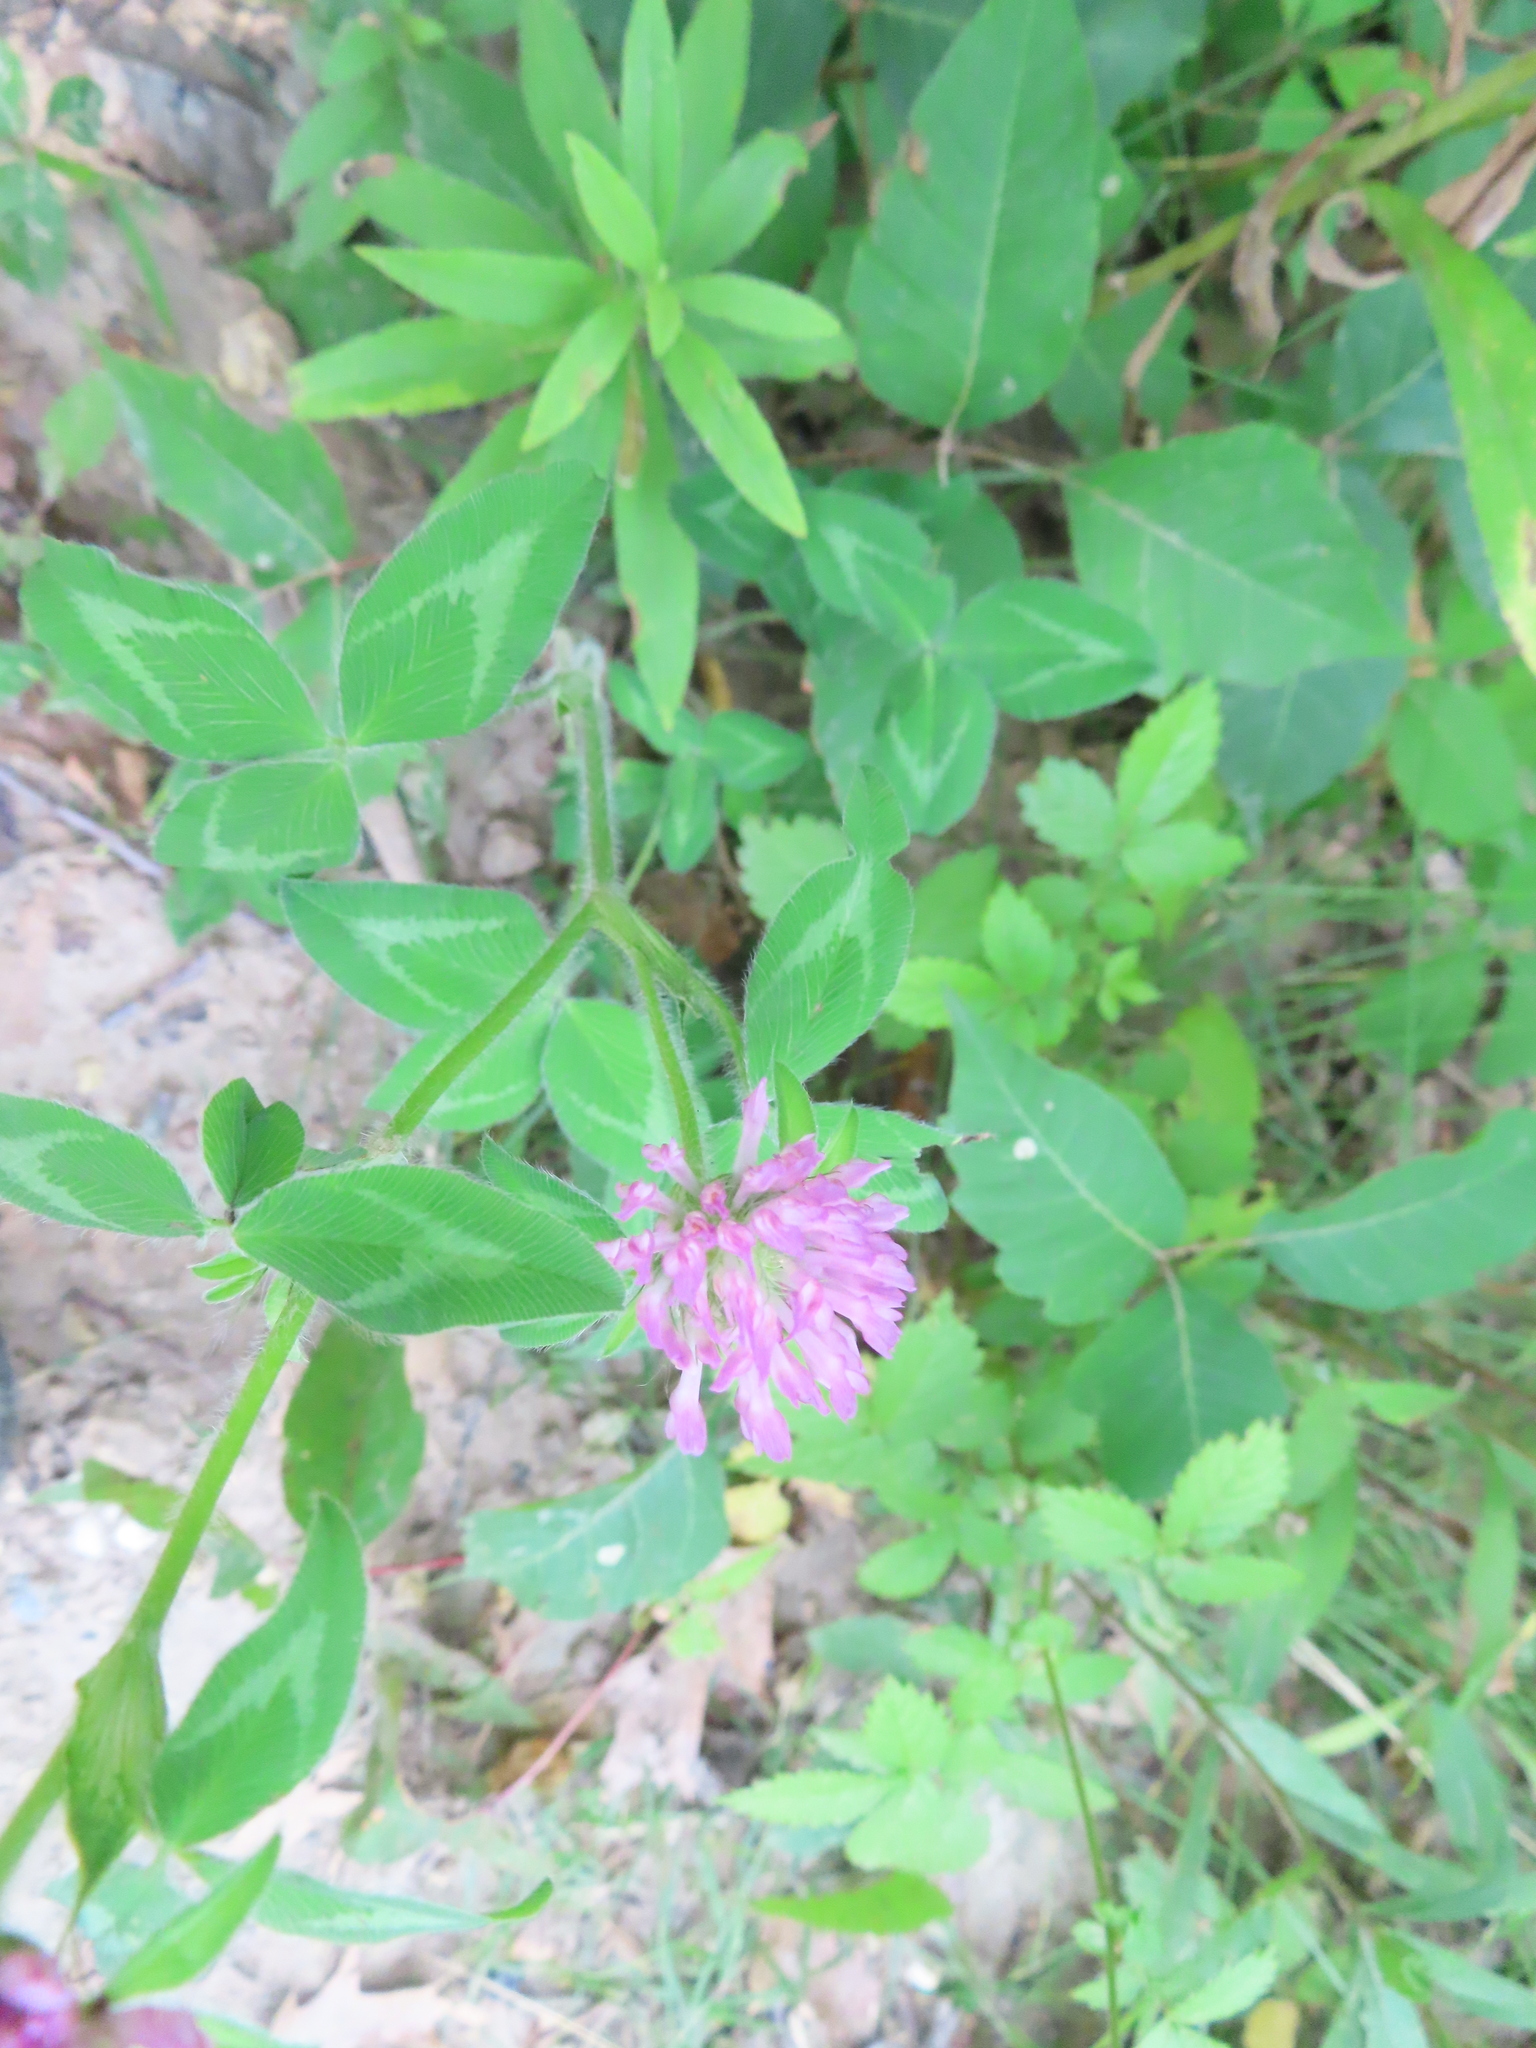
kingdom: Plantae
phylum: Tracheophyta
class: Magnoliopsida
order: Fabales
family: Fabaceae
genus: Trifolium
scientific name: Trifolium pratense
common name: Red clover
